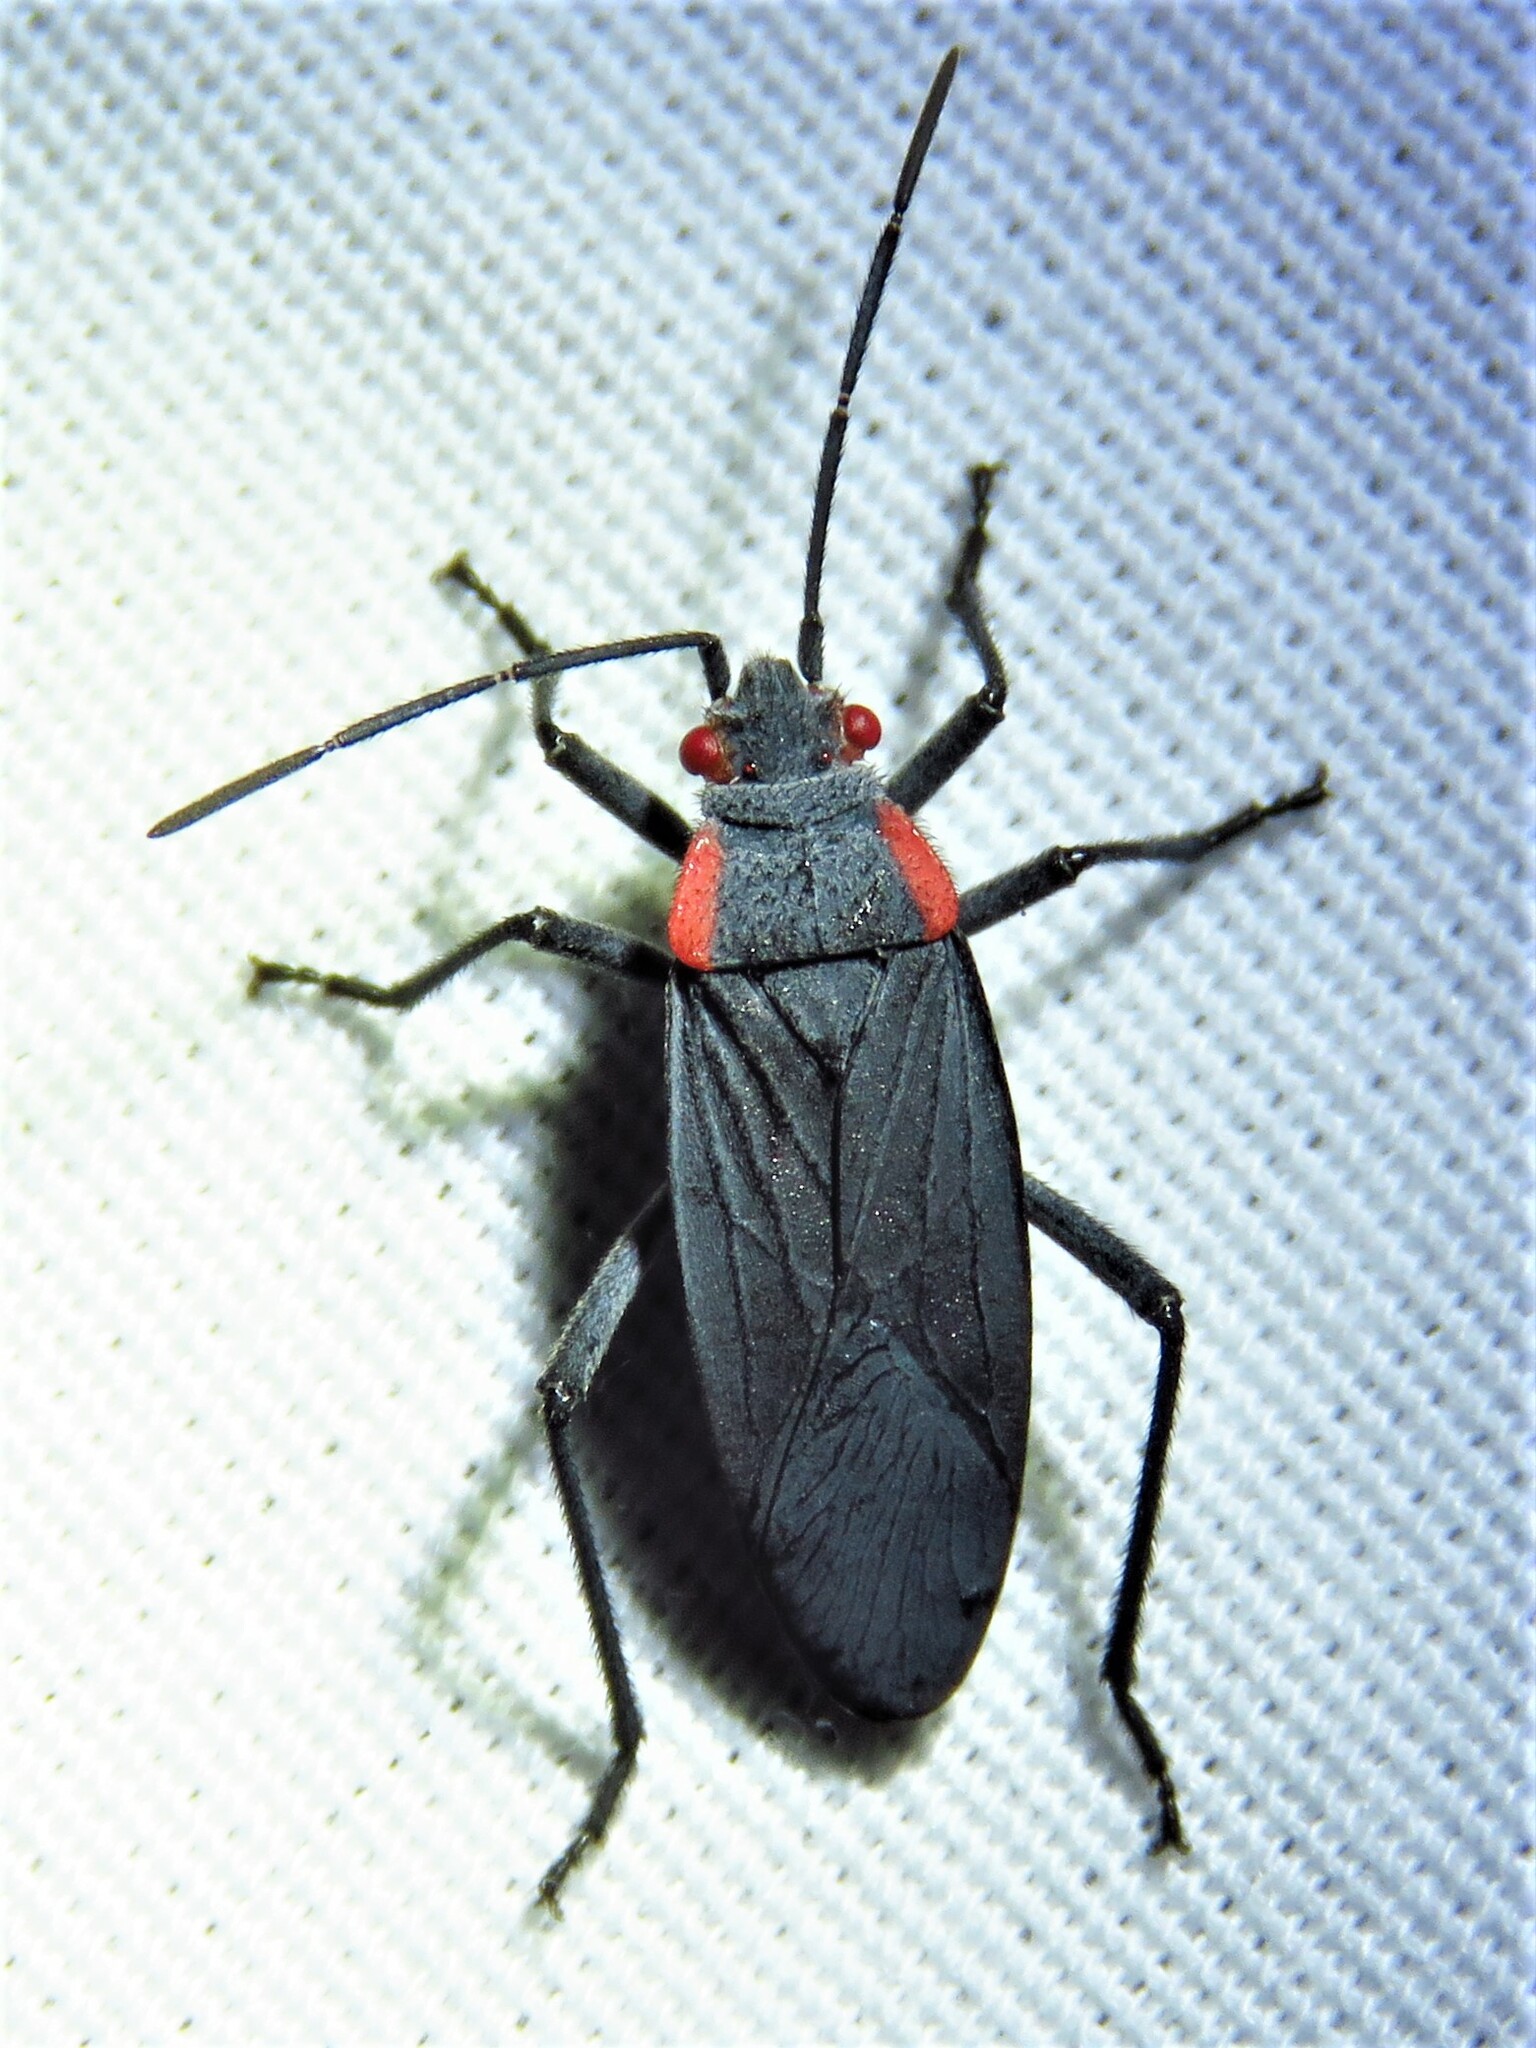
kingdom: Animalia
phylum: Arthropoda
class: Insecta
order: Hemiptera
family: Rhopalidae
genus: Jadera
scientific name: Jadera haematoloma
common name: Red-shouldered bug
